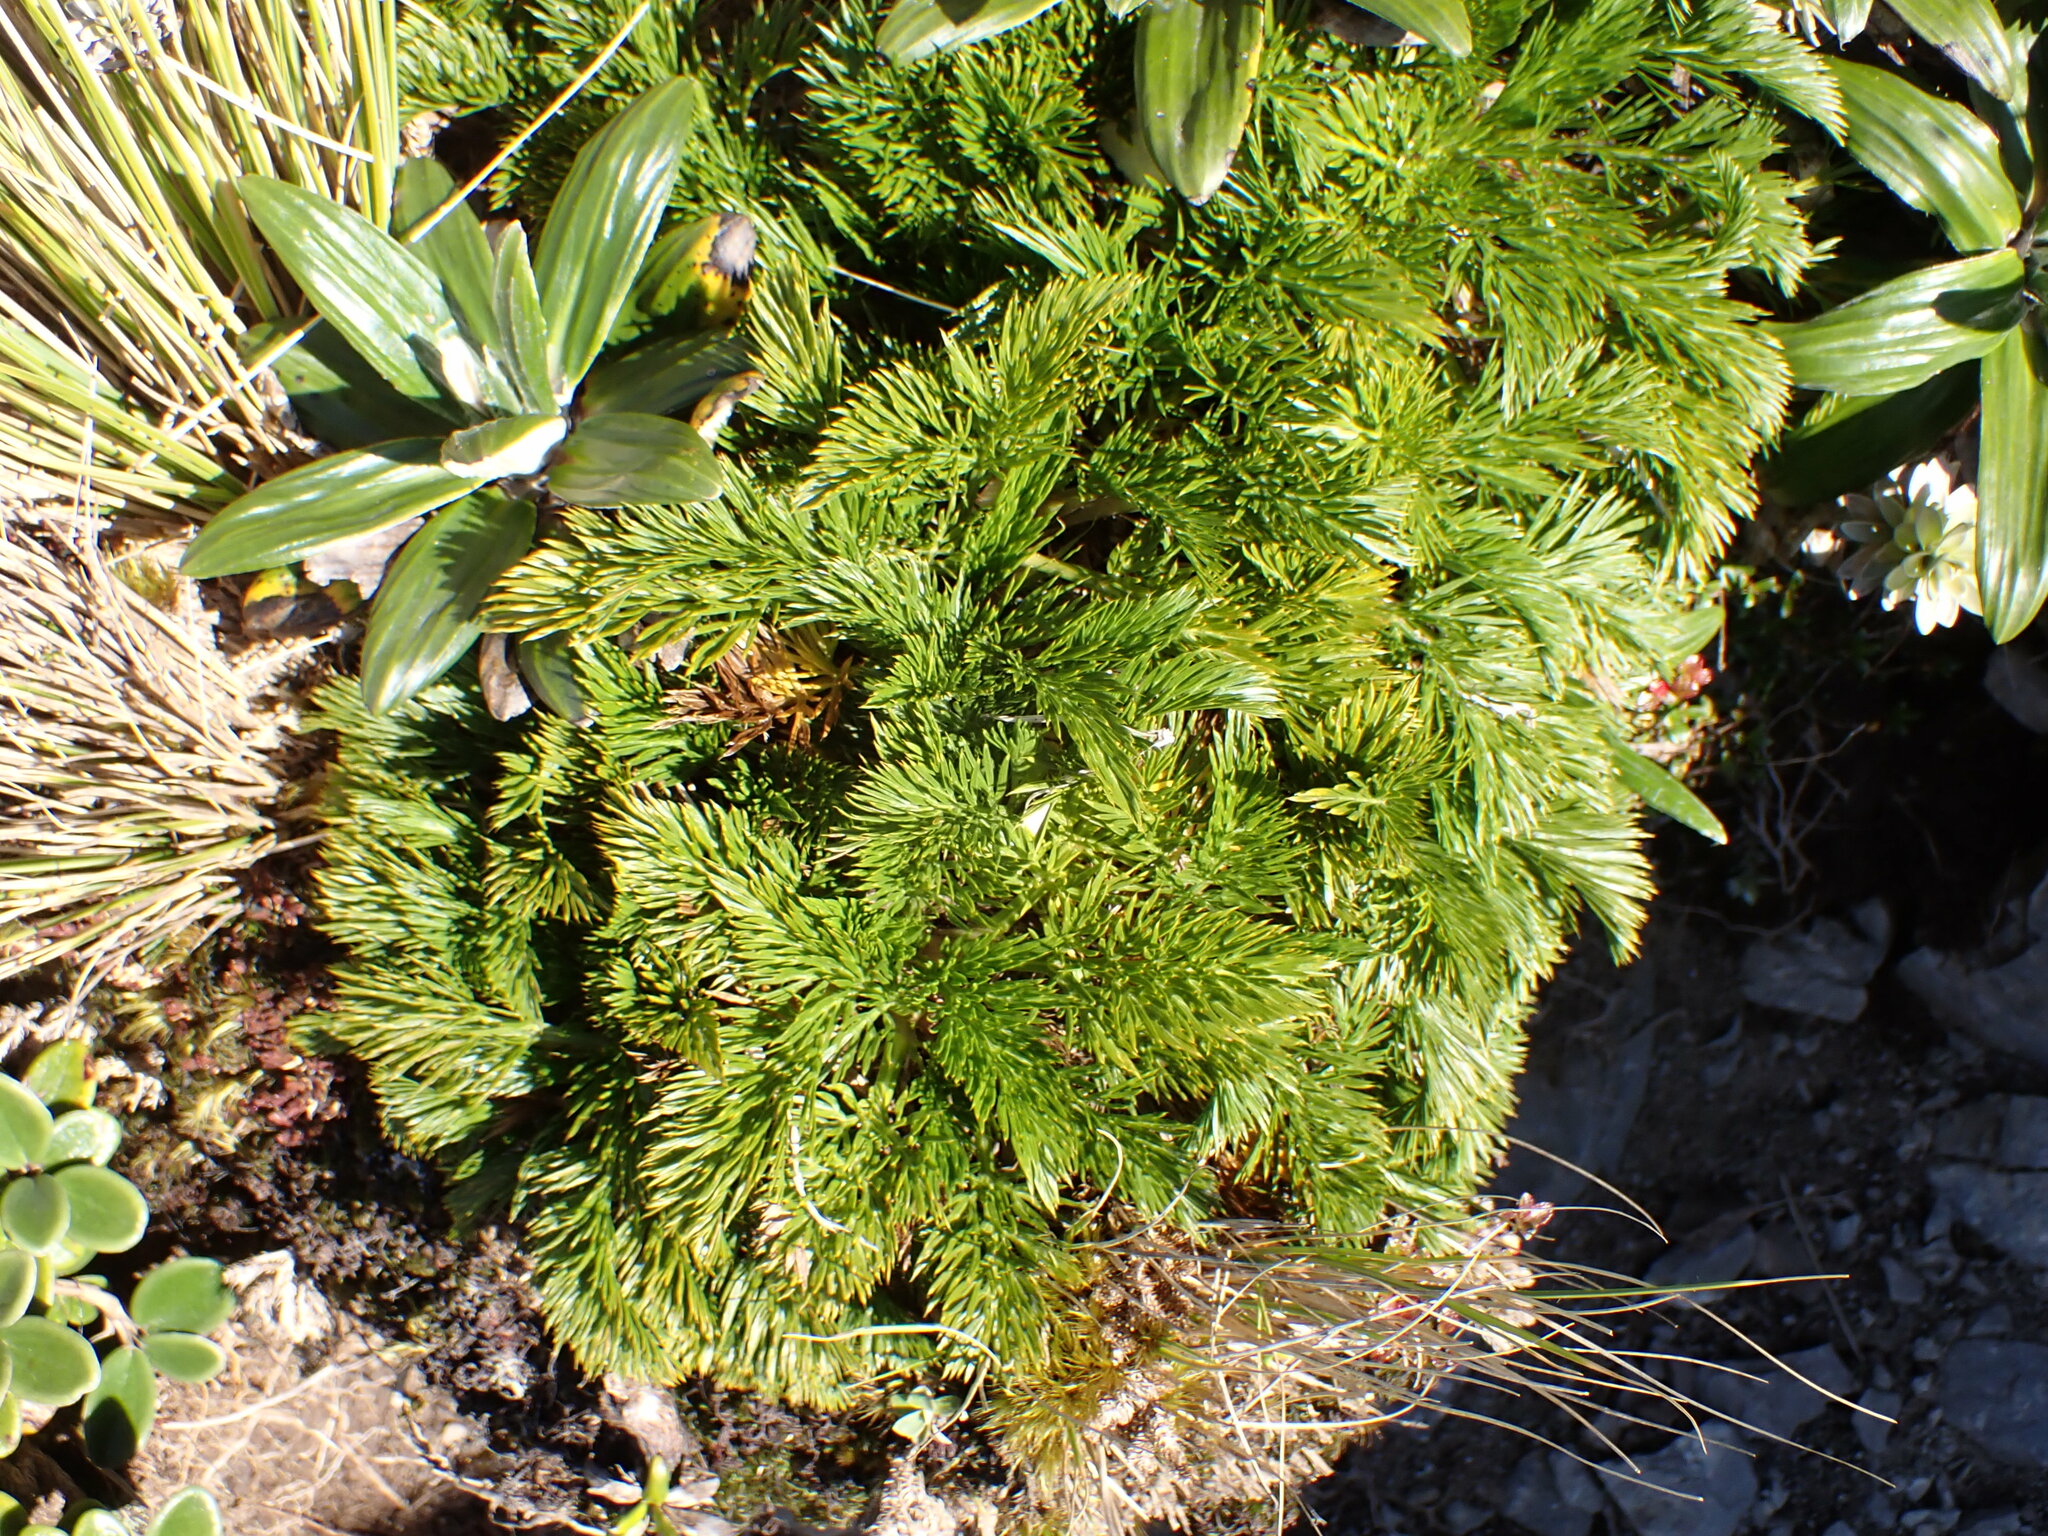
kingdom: Plantae
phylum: Tracheophyta
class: Magnoliopsida
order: Apiales
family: Apiaceae
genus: Aciphylla
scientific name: Aciphylla dissecta
